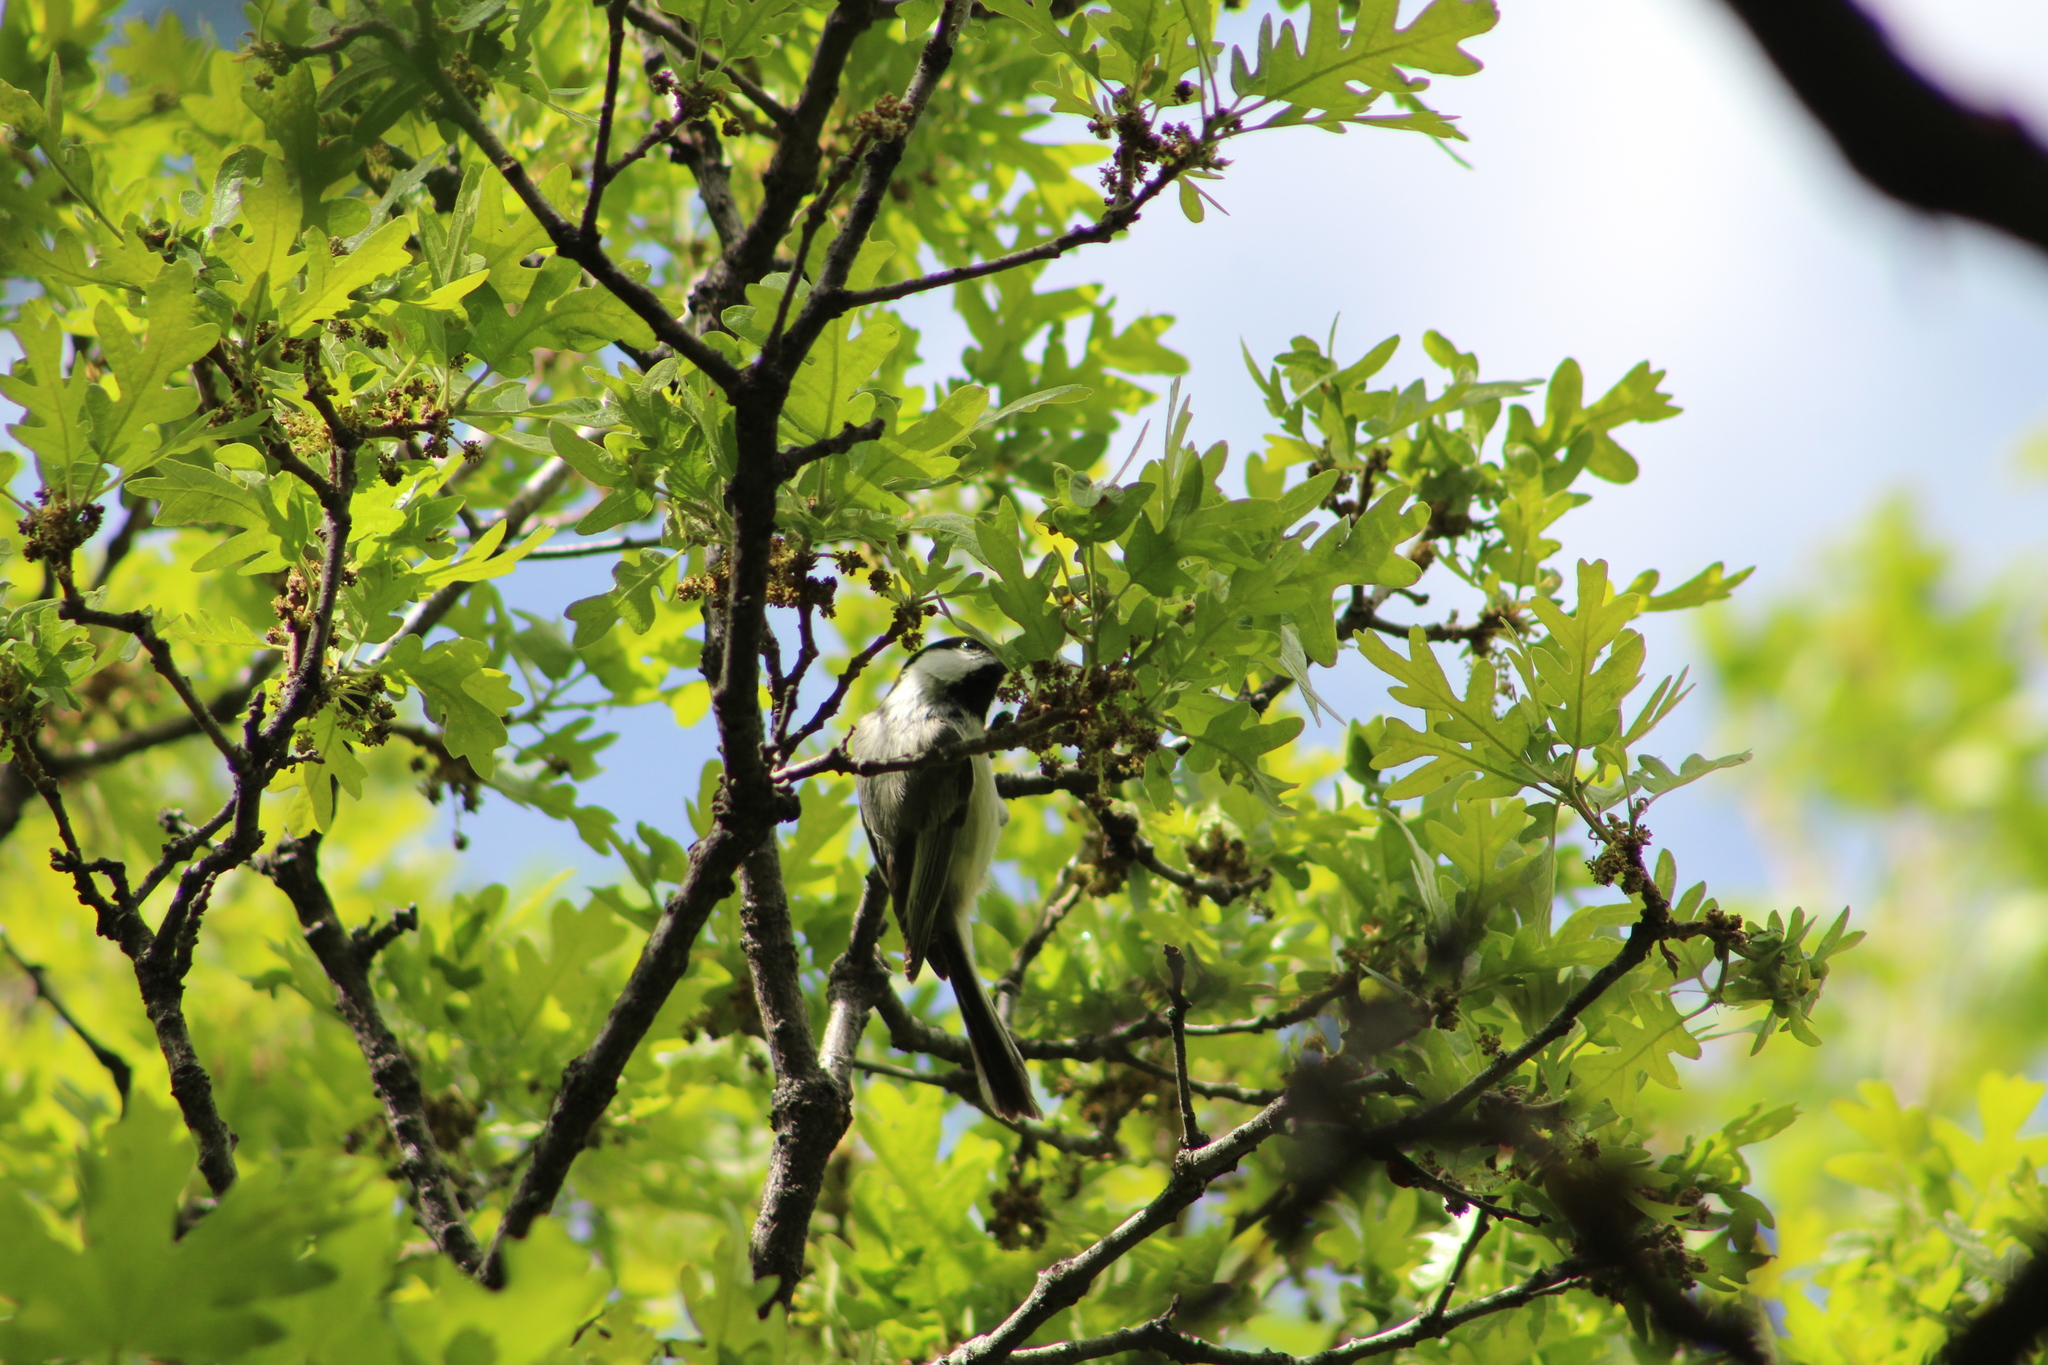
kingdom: Animalia
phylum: Chordata
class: Aves
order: Passeriformes
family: Paridae
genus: Poecile
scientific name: Poecile atricapillus
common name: Black-capped chickadee
